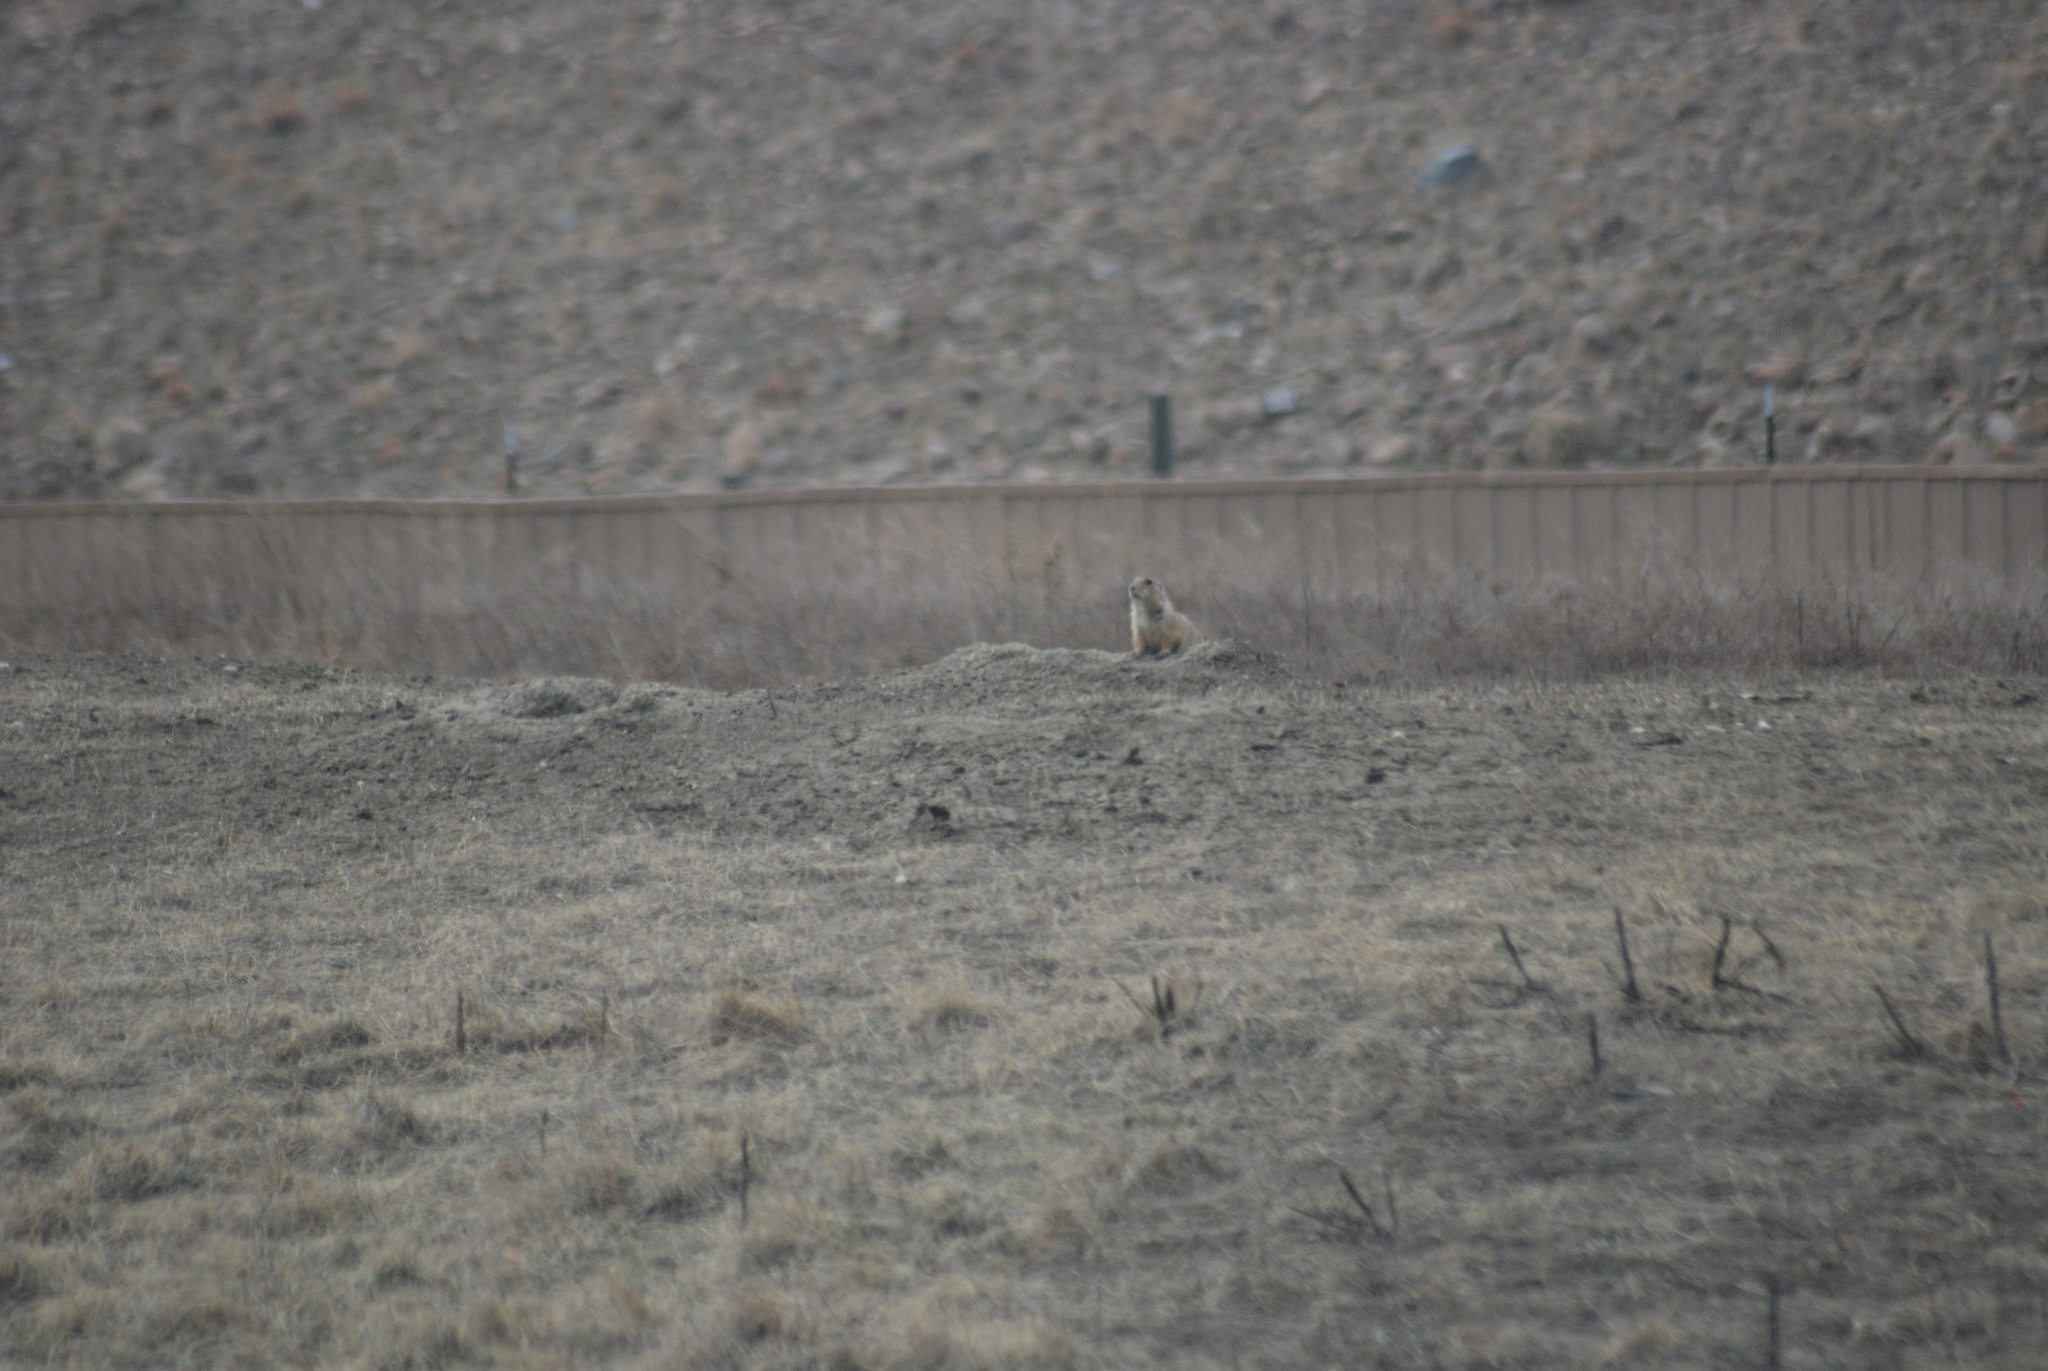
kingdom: Animalia
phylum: Chordata
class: Mammalia
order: Rodentia
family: Sciuridae
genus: Cynomys
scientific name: Cynomys ludovicianus
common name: Black-tailed prairie dog
